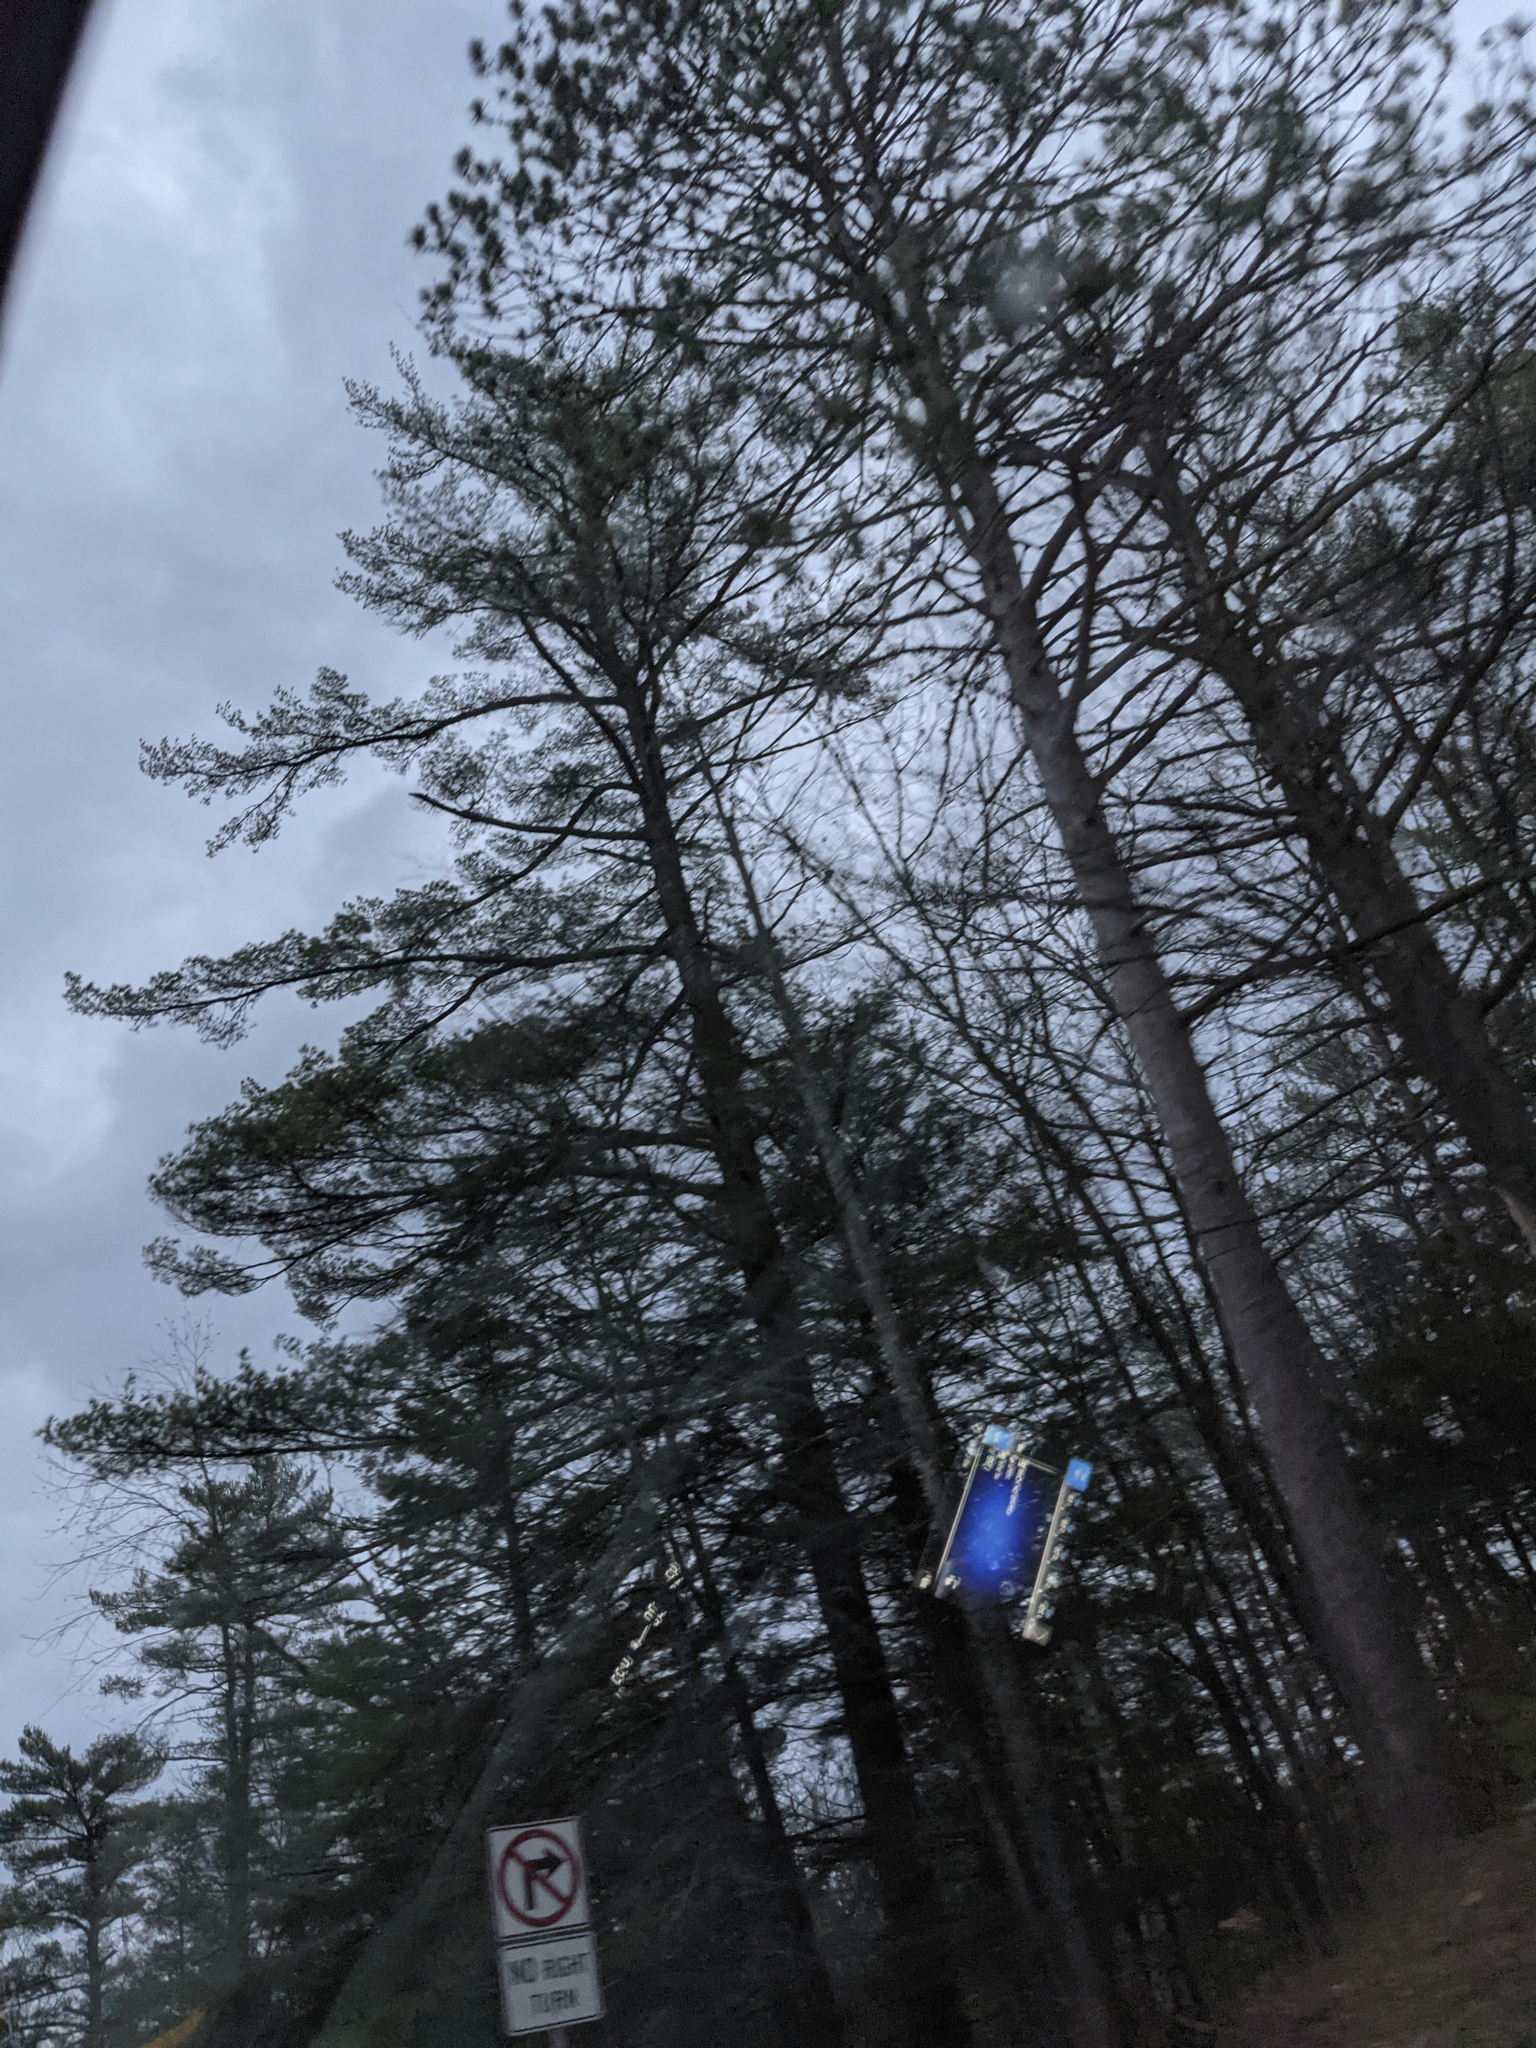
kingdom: Plantae
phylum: Tracheophyta
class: Pinopsida
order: Pinales
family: Pinaceae
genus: Pinus
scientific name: Pinus strobus
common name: Weymouth pine
